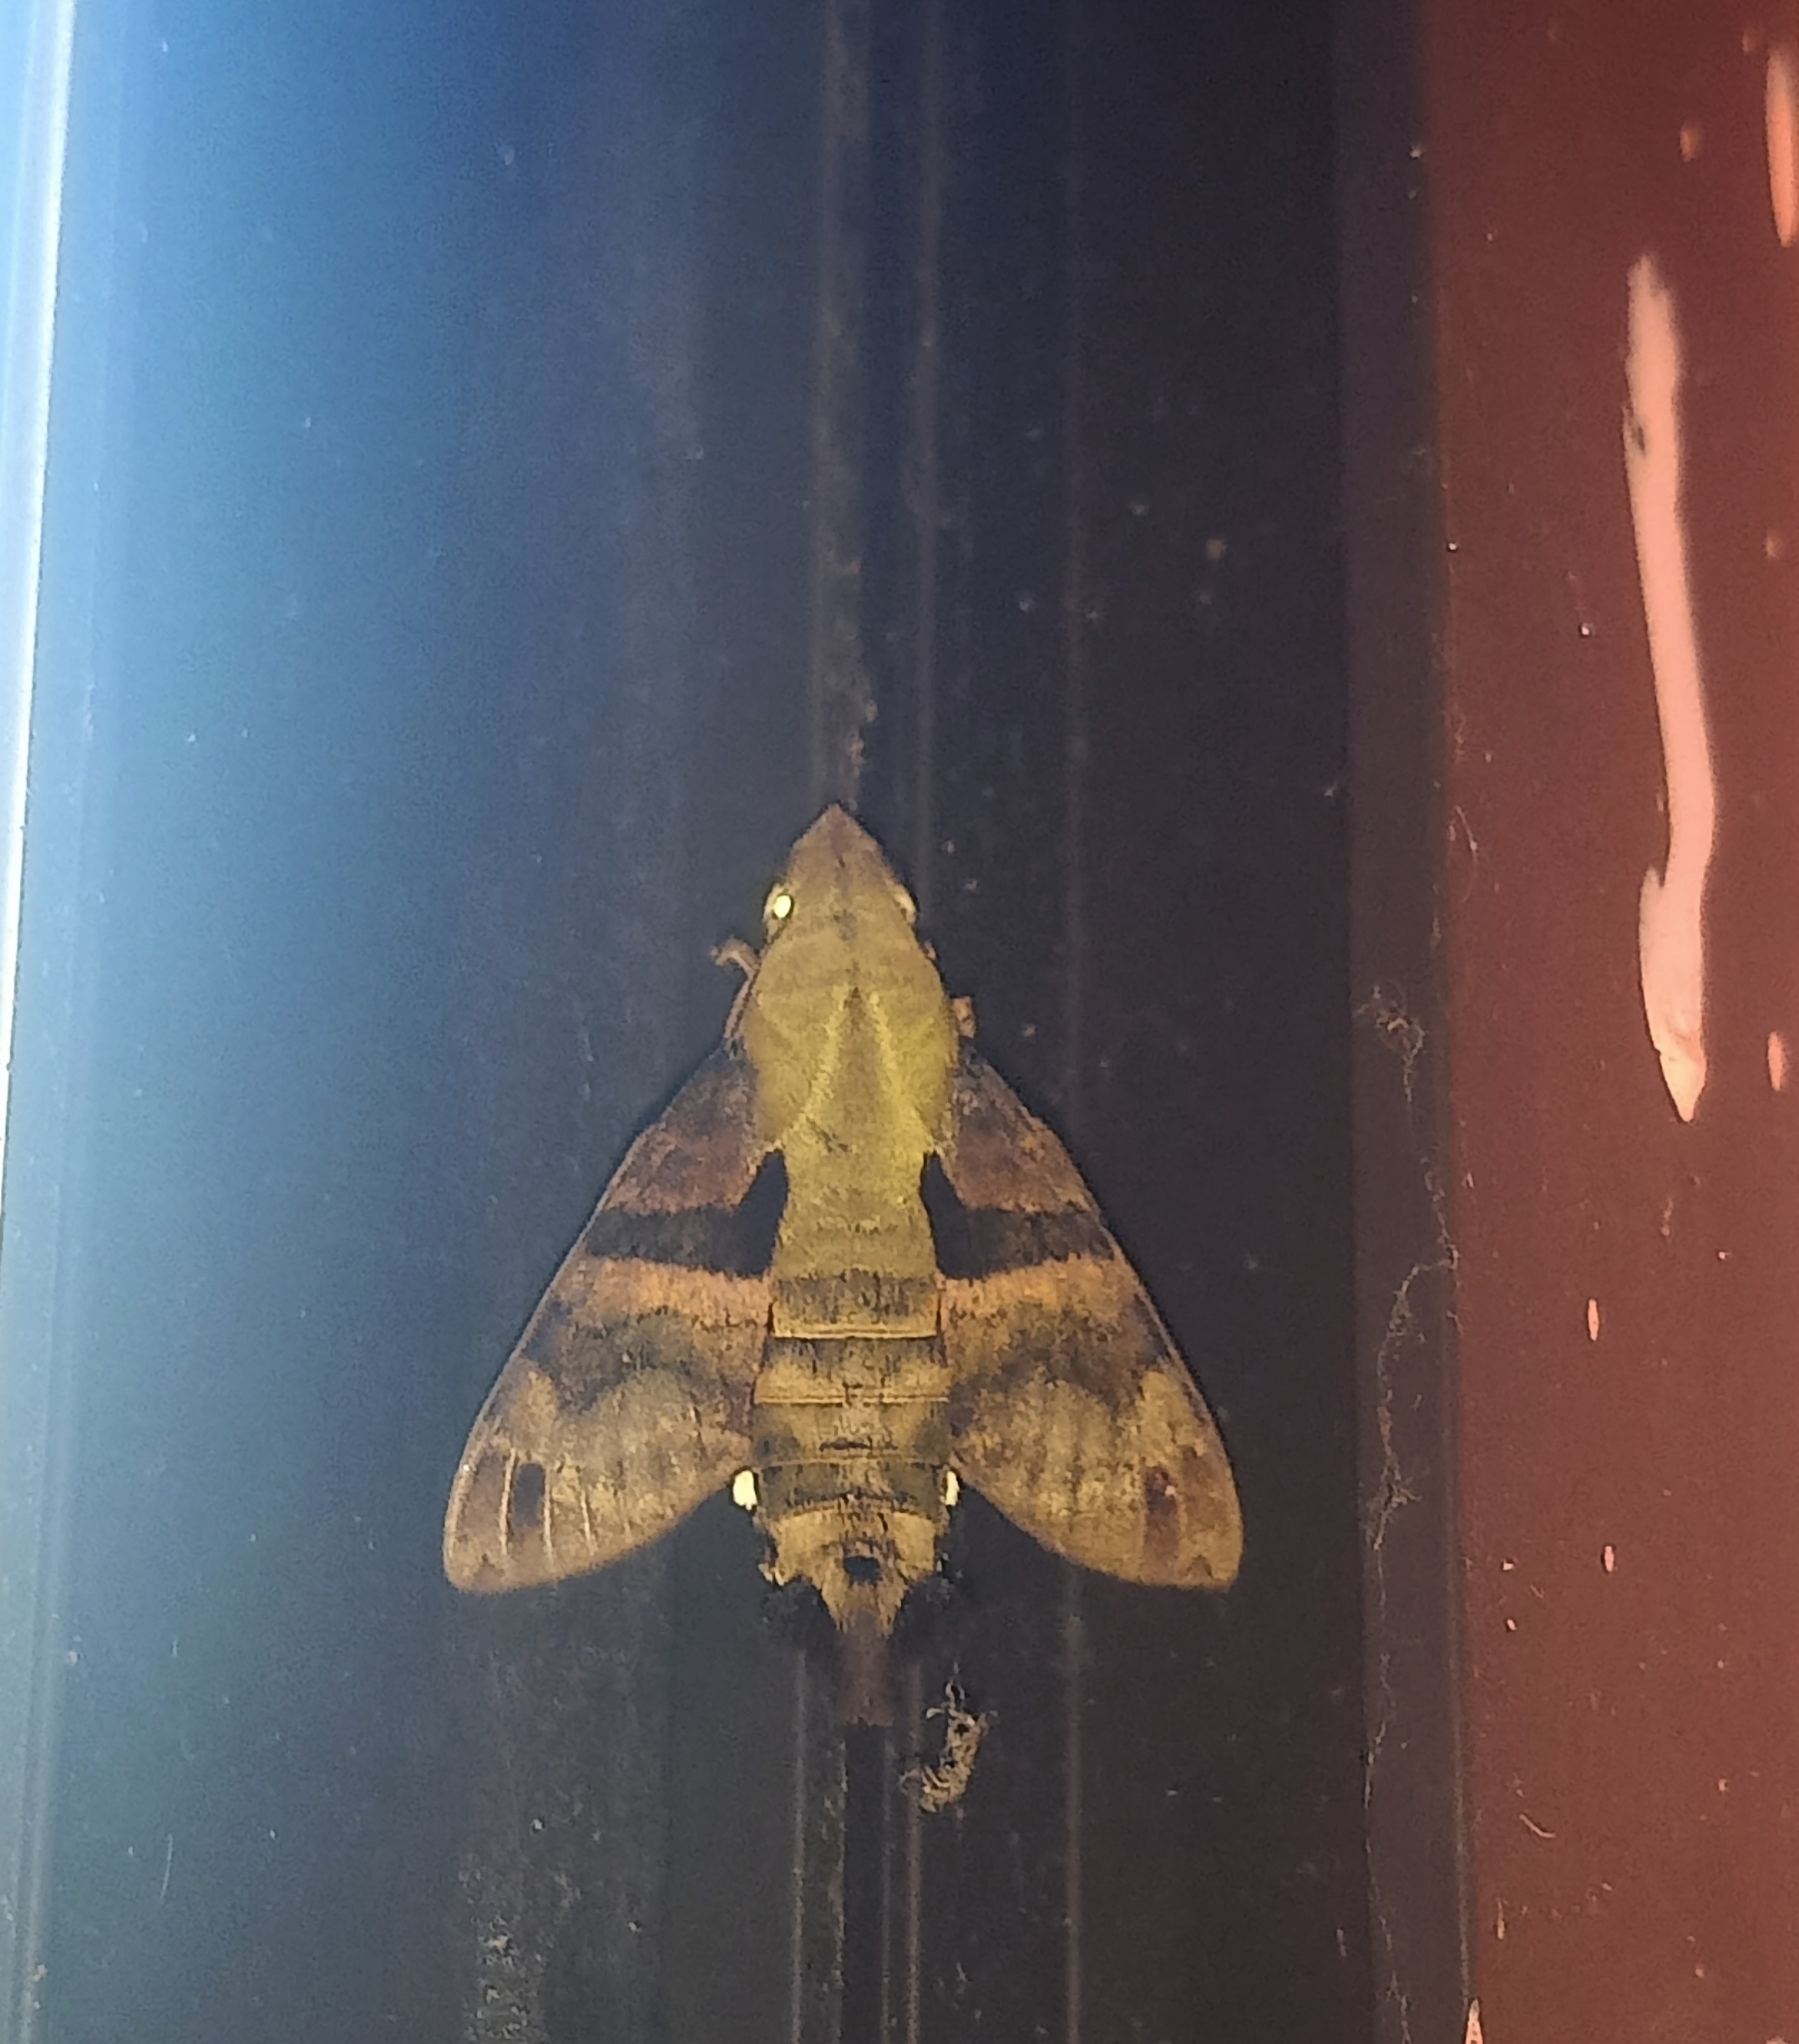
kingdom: Animalia
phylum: Arthropoda
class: Insecta
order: Lepidoptera
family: Sphingidae
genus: Macroglossum
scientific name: Macroglossum sitiene
